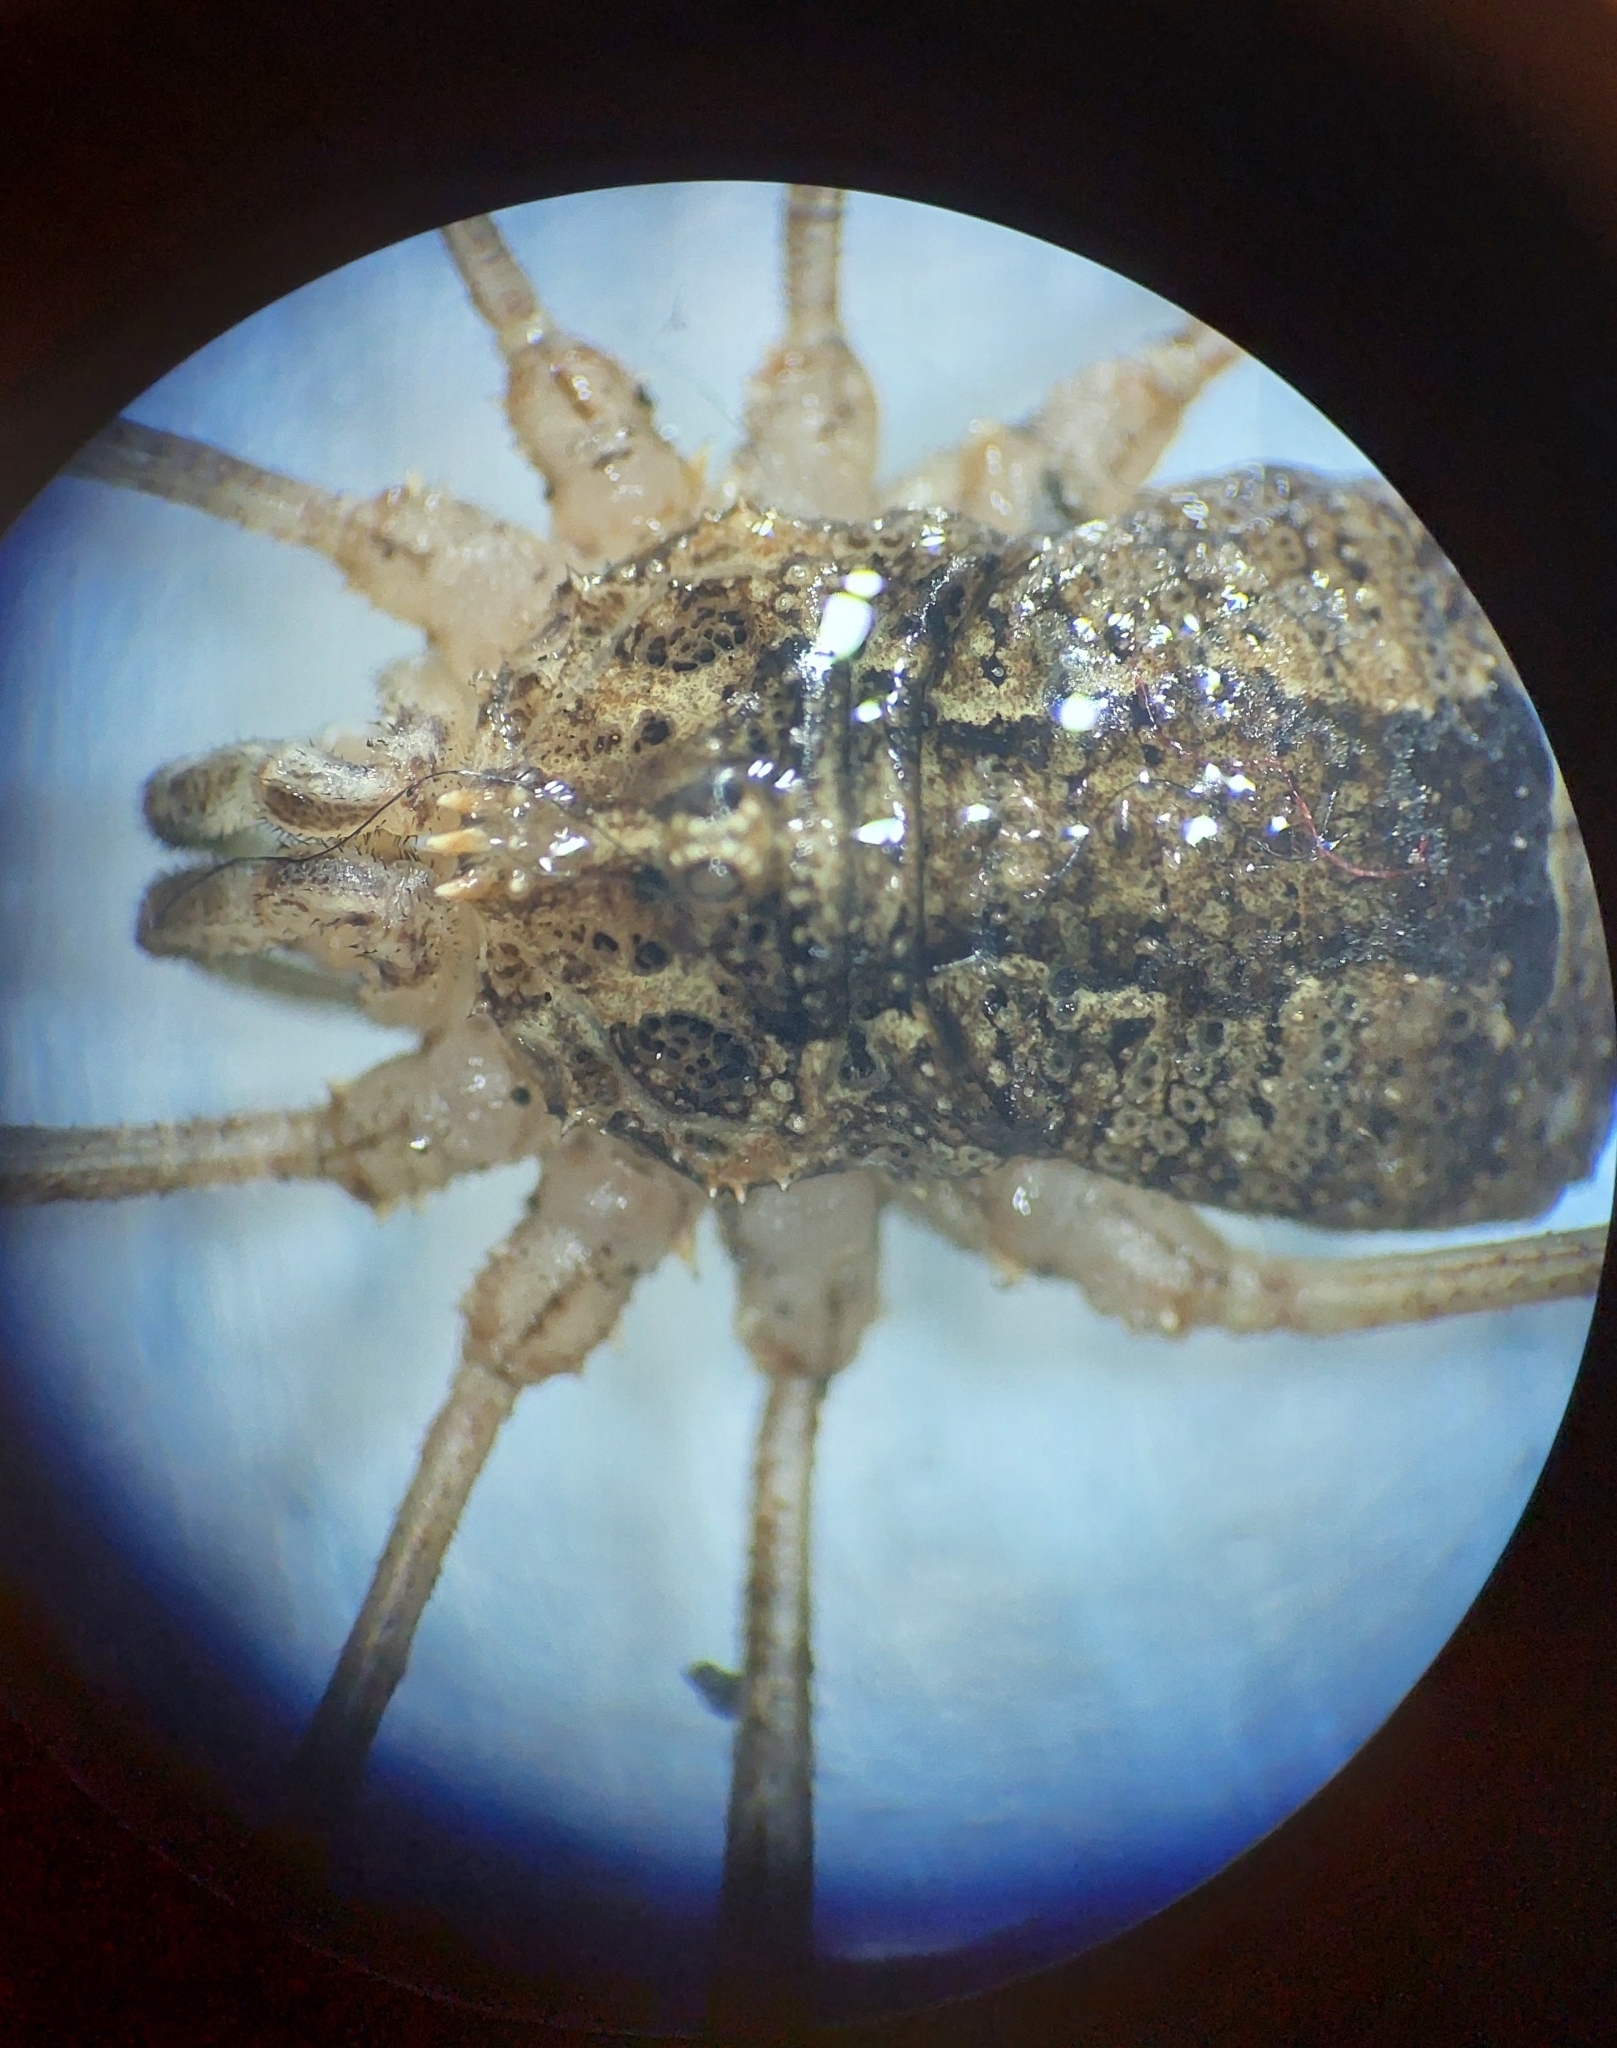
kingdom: Animalia
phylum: Arthropoda
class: Arachnida
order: Opiliones
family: Phalangiidae
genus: Odiellus
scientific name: Odiellus spinosus
